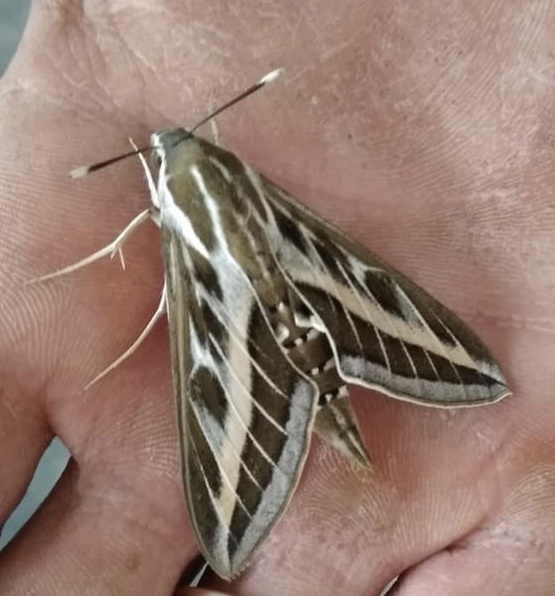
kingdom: Animalia
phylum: Arthropoda
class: Insecta
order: Lepidoptera
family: Sphingidae
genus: Hyles
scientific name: Hyles livornica
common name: Striped hawk-moth
